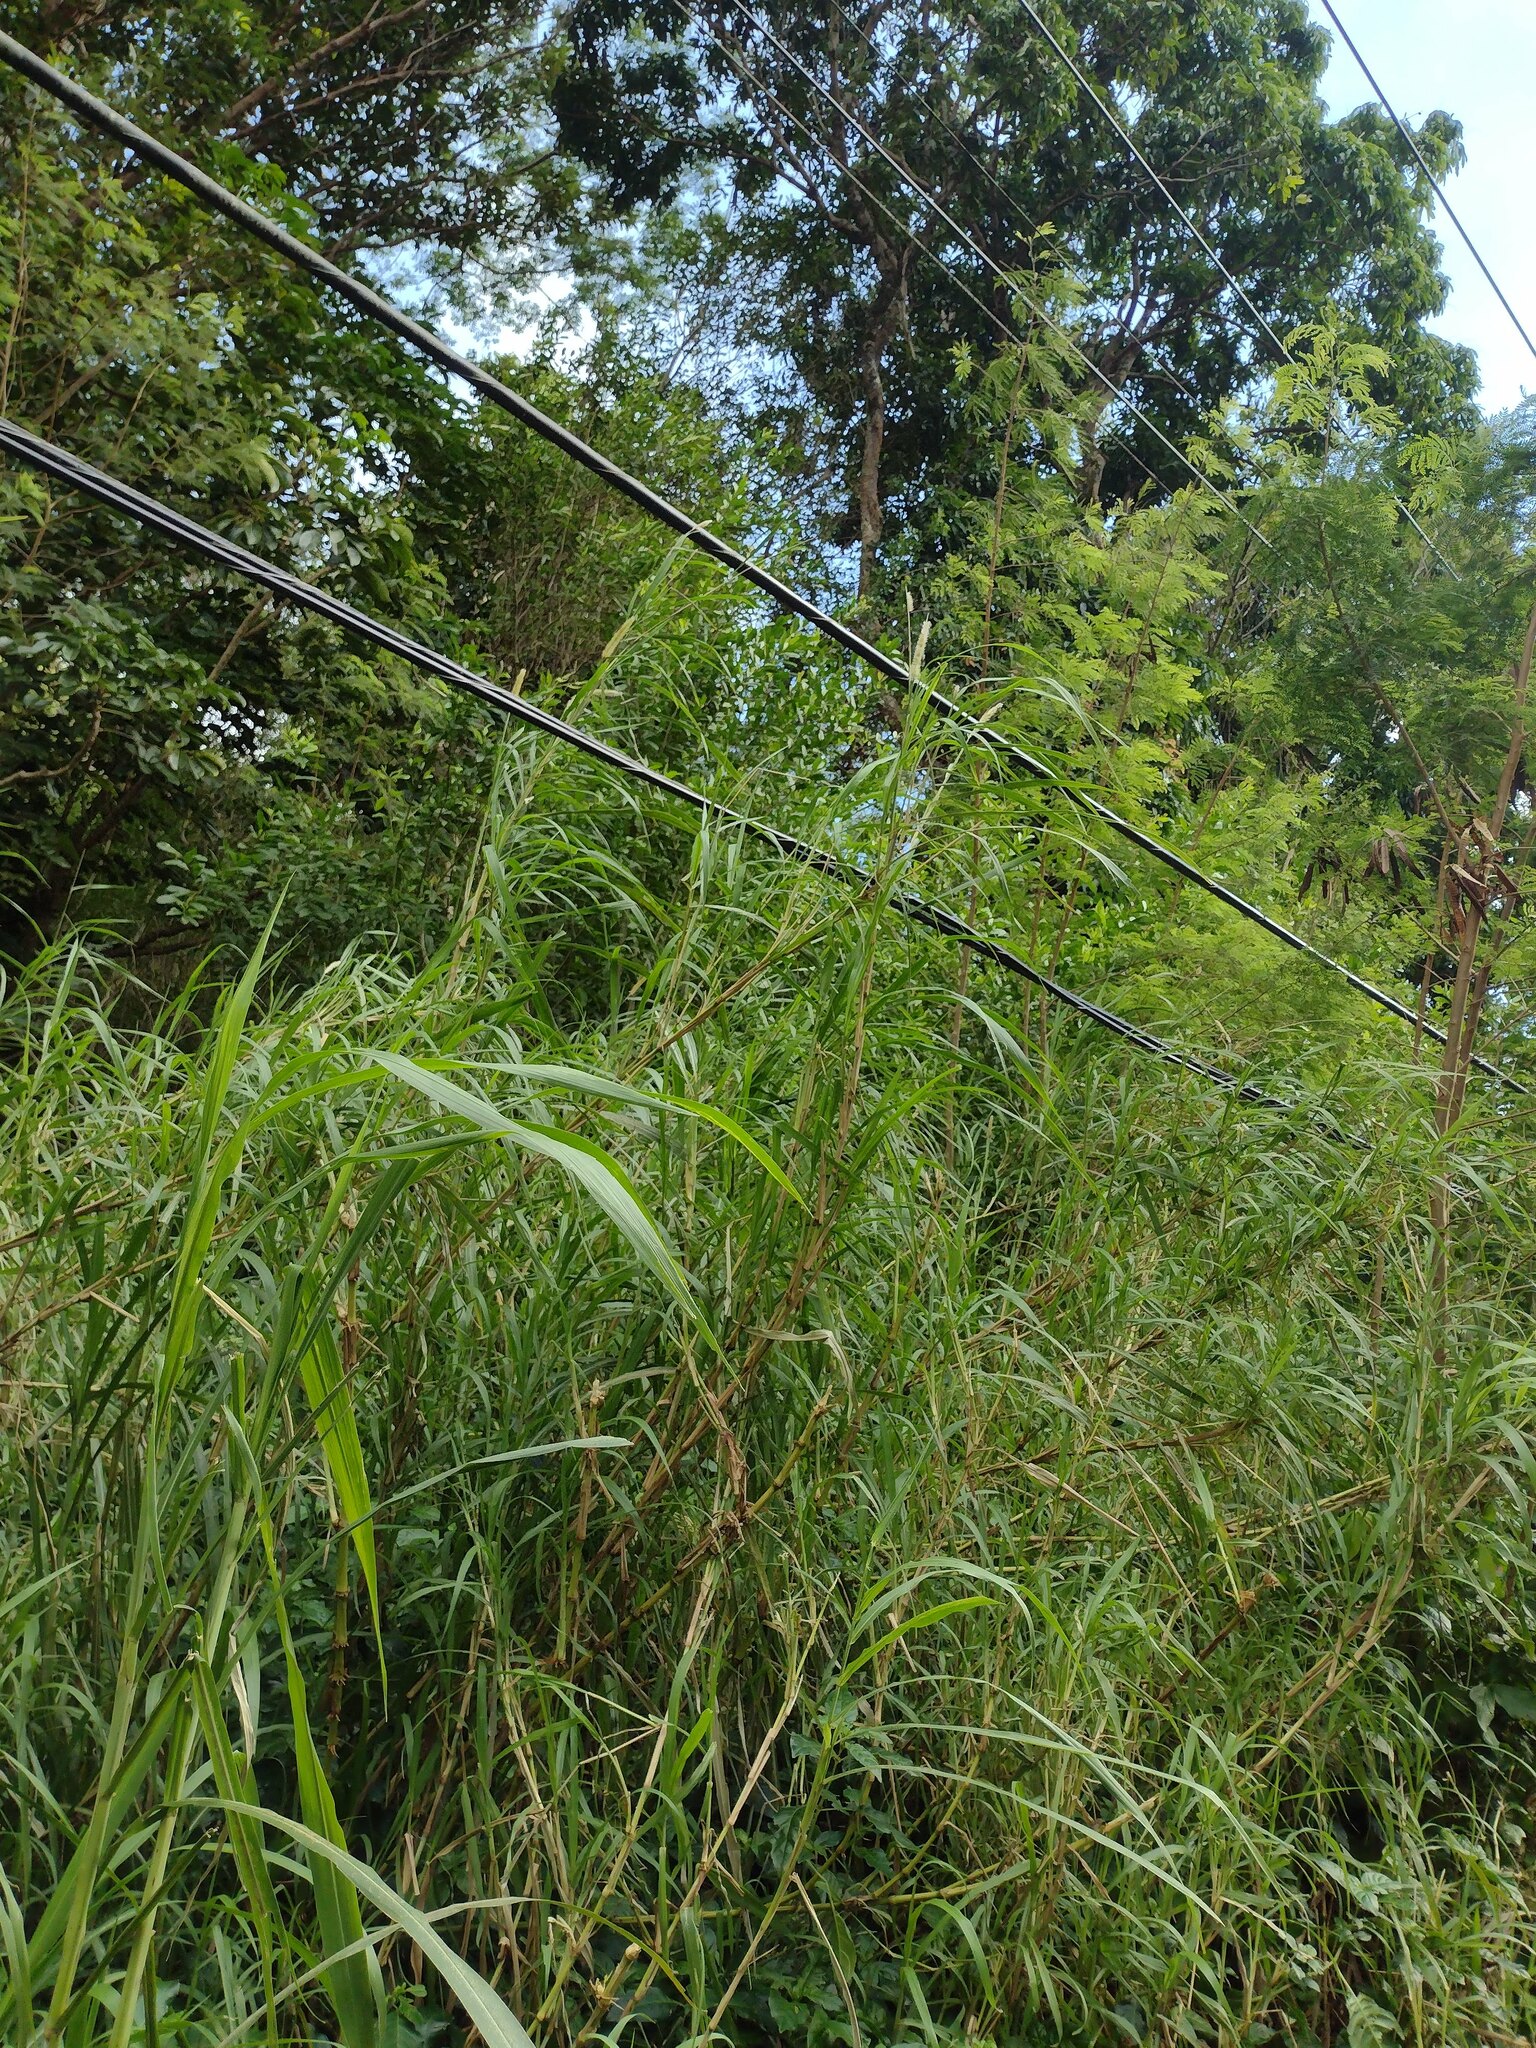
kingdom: Plantae
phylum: Tracheophyta
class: Liliopsida
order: Poales
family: Poaceae
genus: Cenchrus
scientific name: Cenchrus purpureus
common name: Elephant grass
